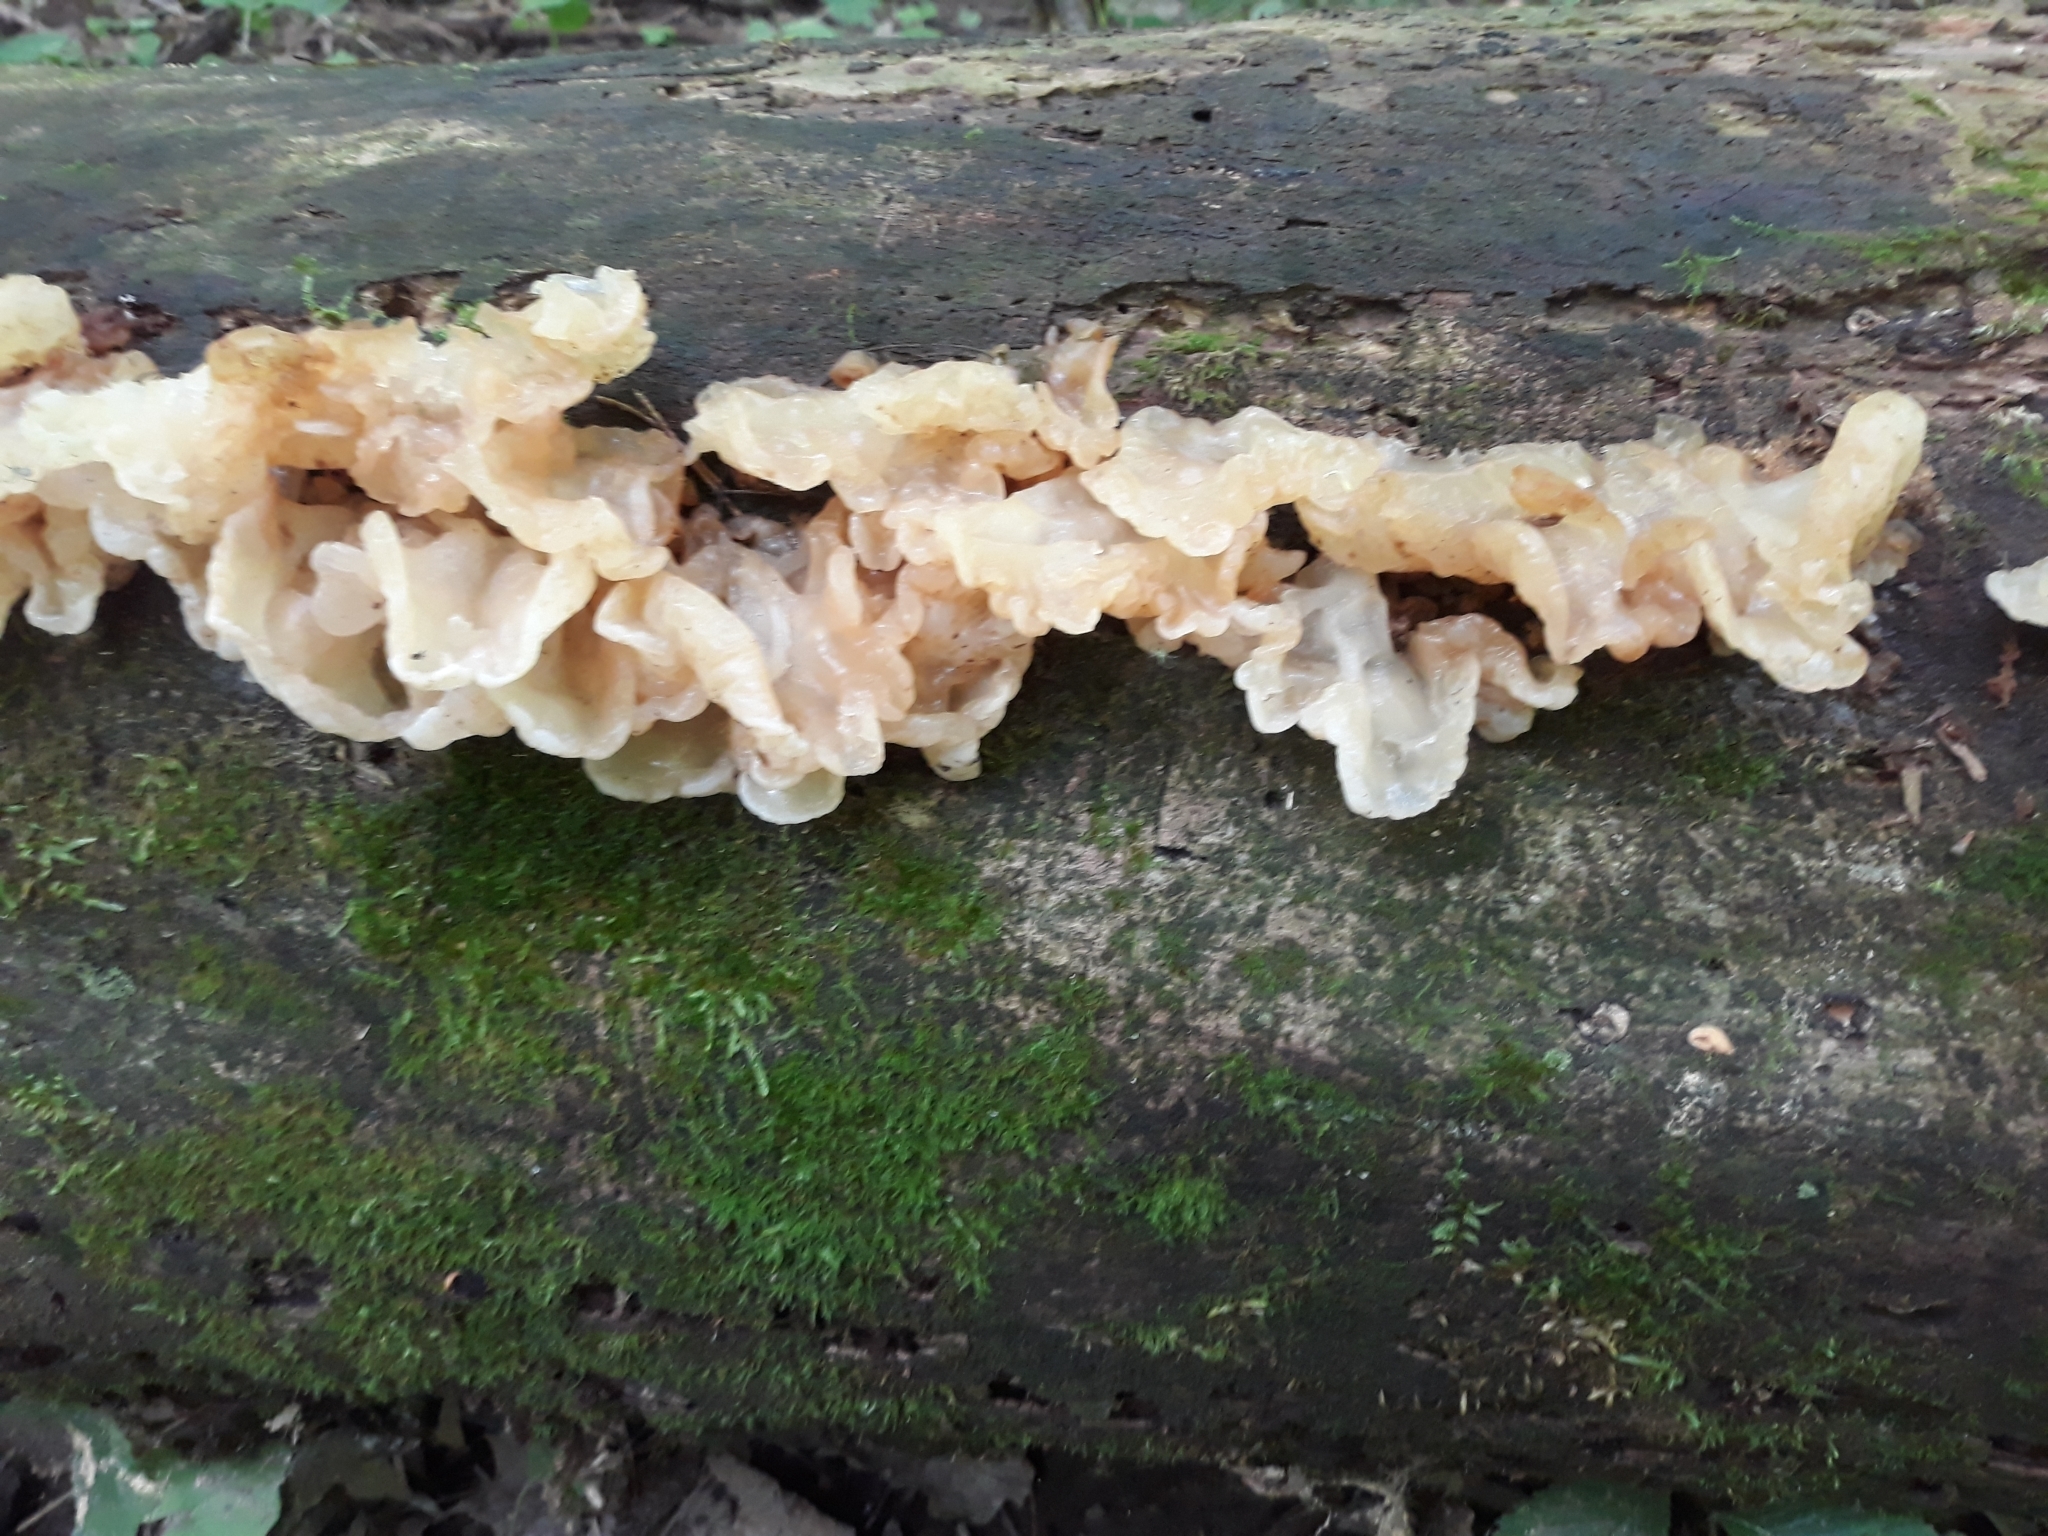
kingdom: Fungi
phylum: Basidiomycota
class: Agaricomycetes
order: Auriculariales
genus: Ductifera
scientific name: Ductifera pululahuana
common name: White jelly fungus
